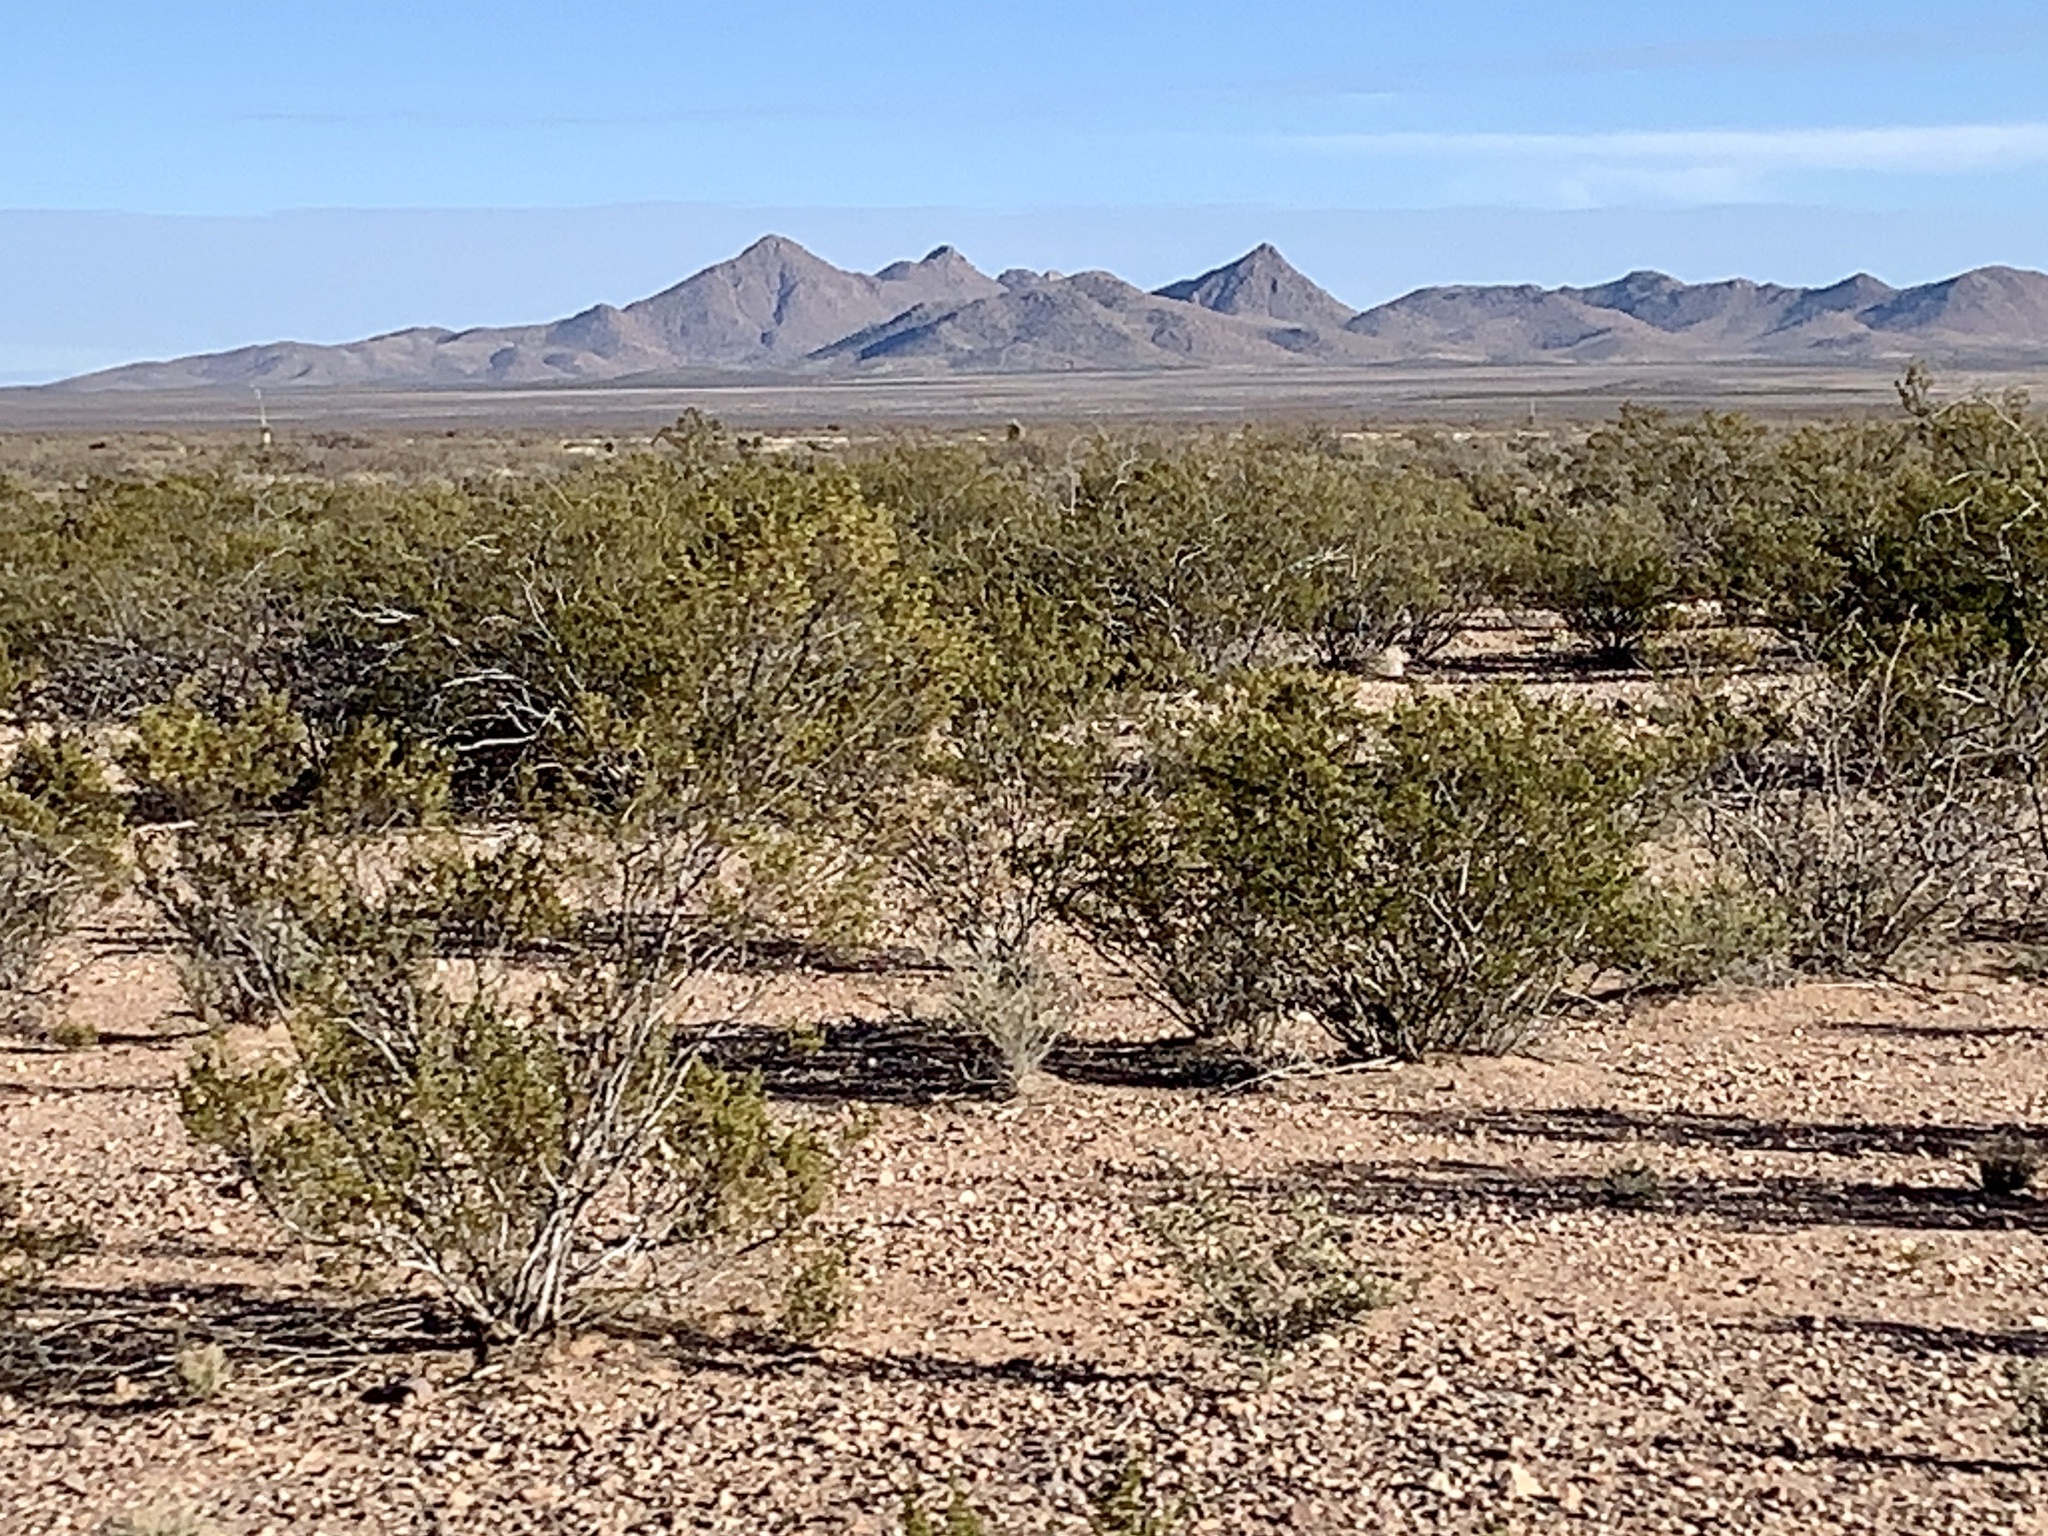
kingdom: Plantae
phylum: Tracheophyta
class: Magnoliopsida
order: Zygophyllales
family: Zygophyllaceae
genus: Larrea
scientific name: Larrea tridentata
